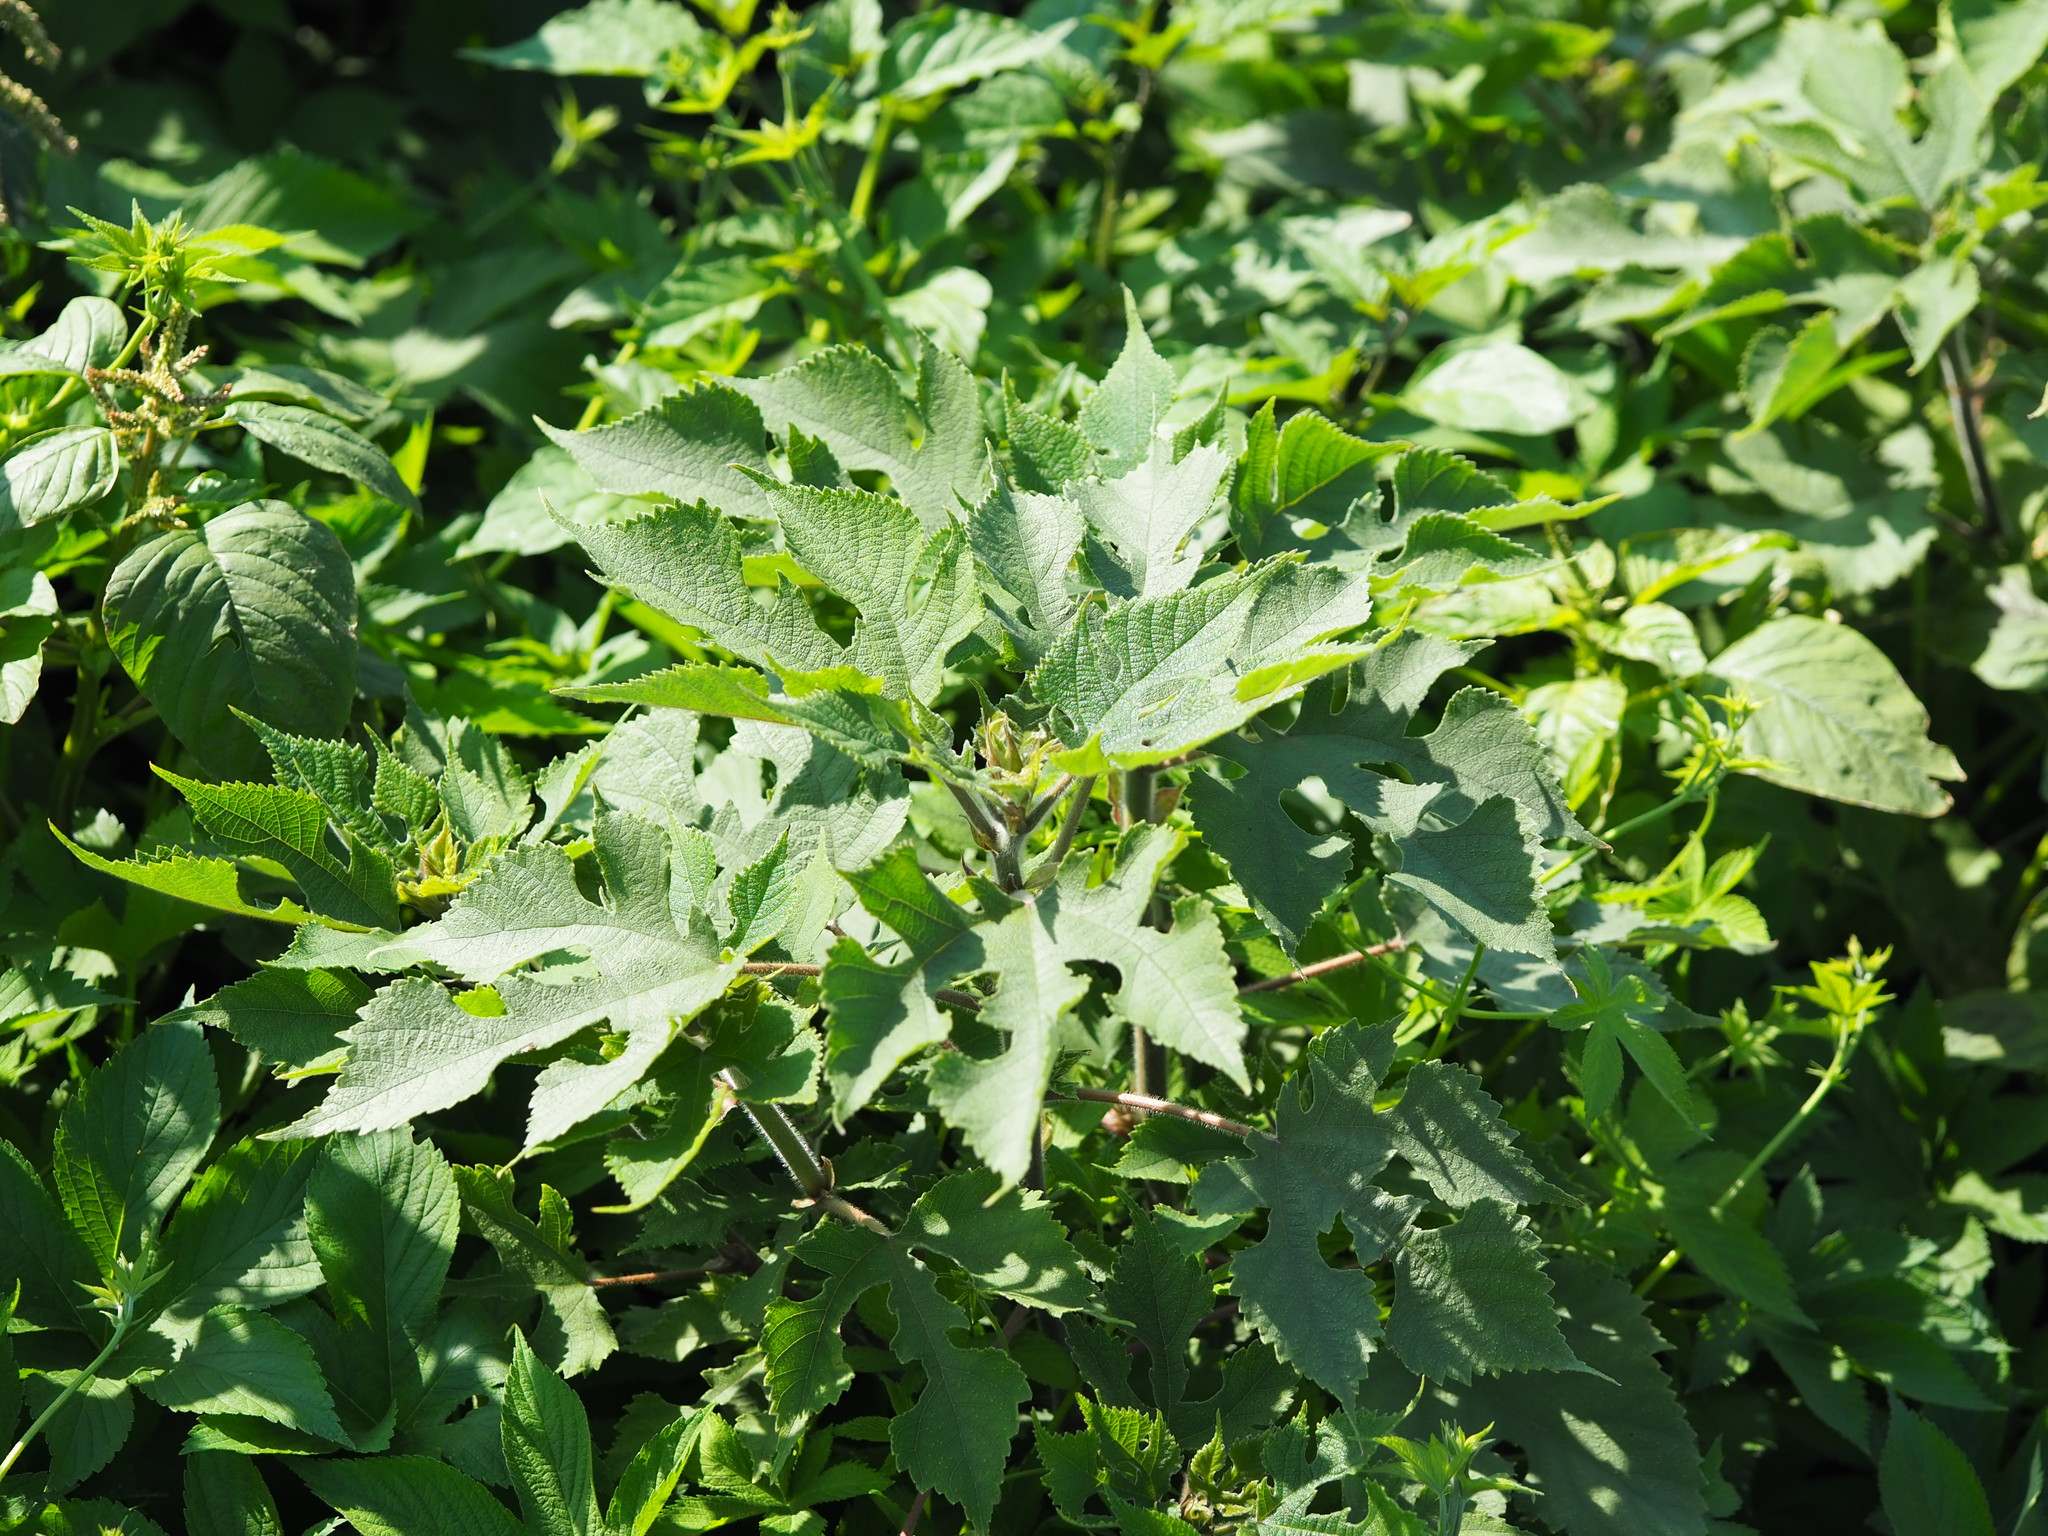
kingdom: Plantae
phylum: Tracheophyta
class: Magnoliopsida
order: Rosales
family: Moraceae
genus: Broussonetia
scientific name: Broussonetia papyrifera
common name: Paper mulberry
